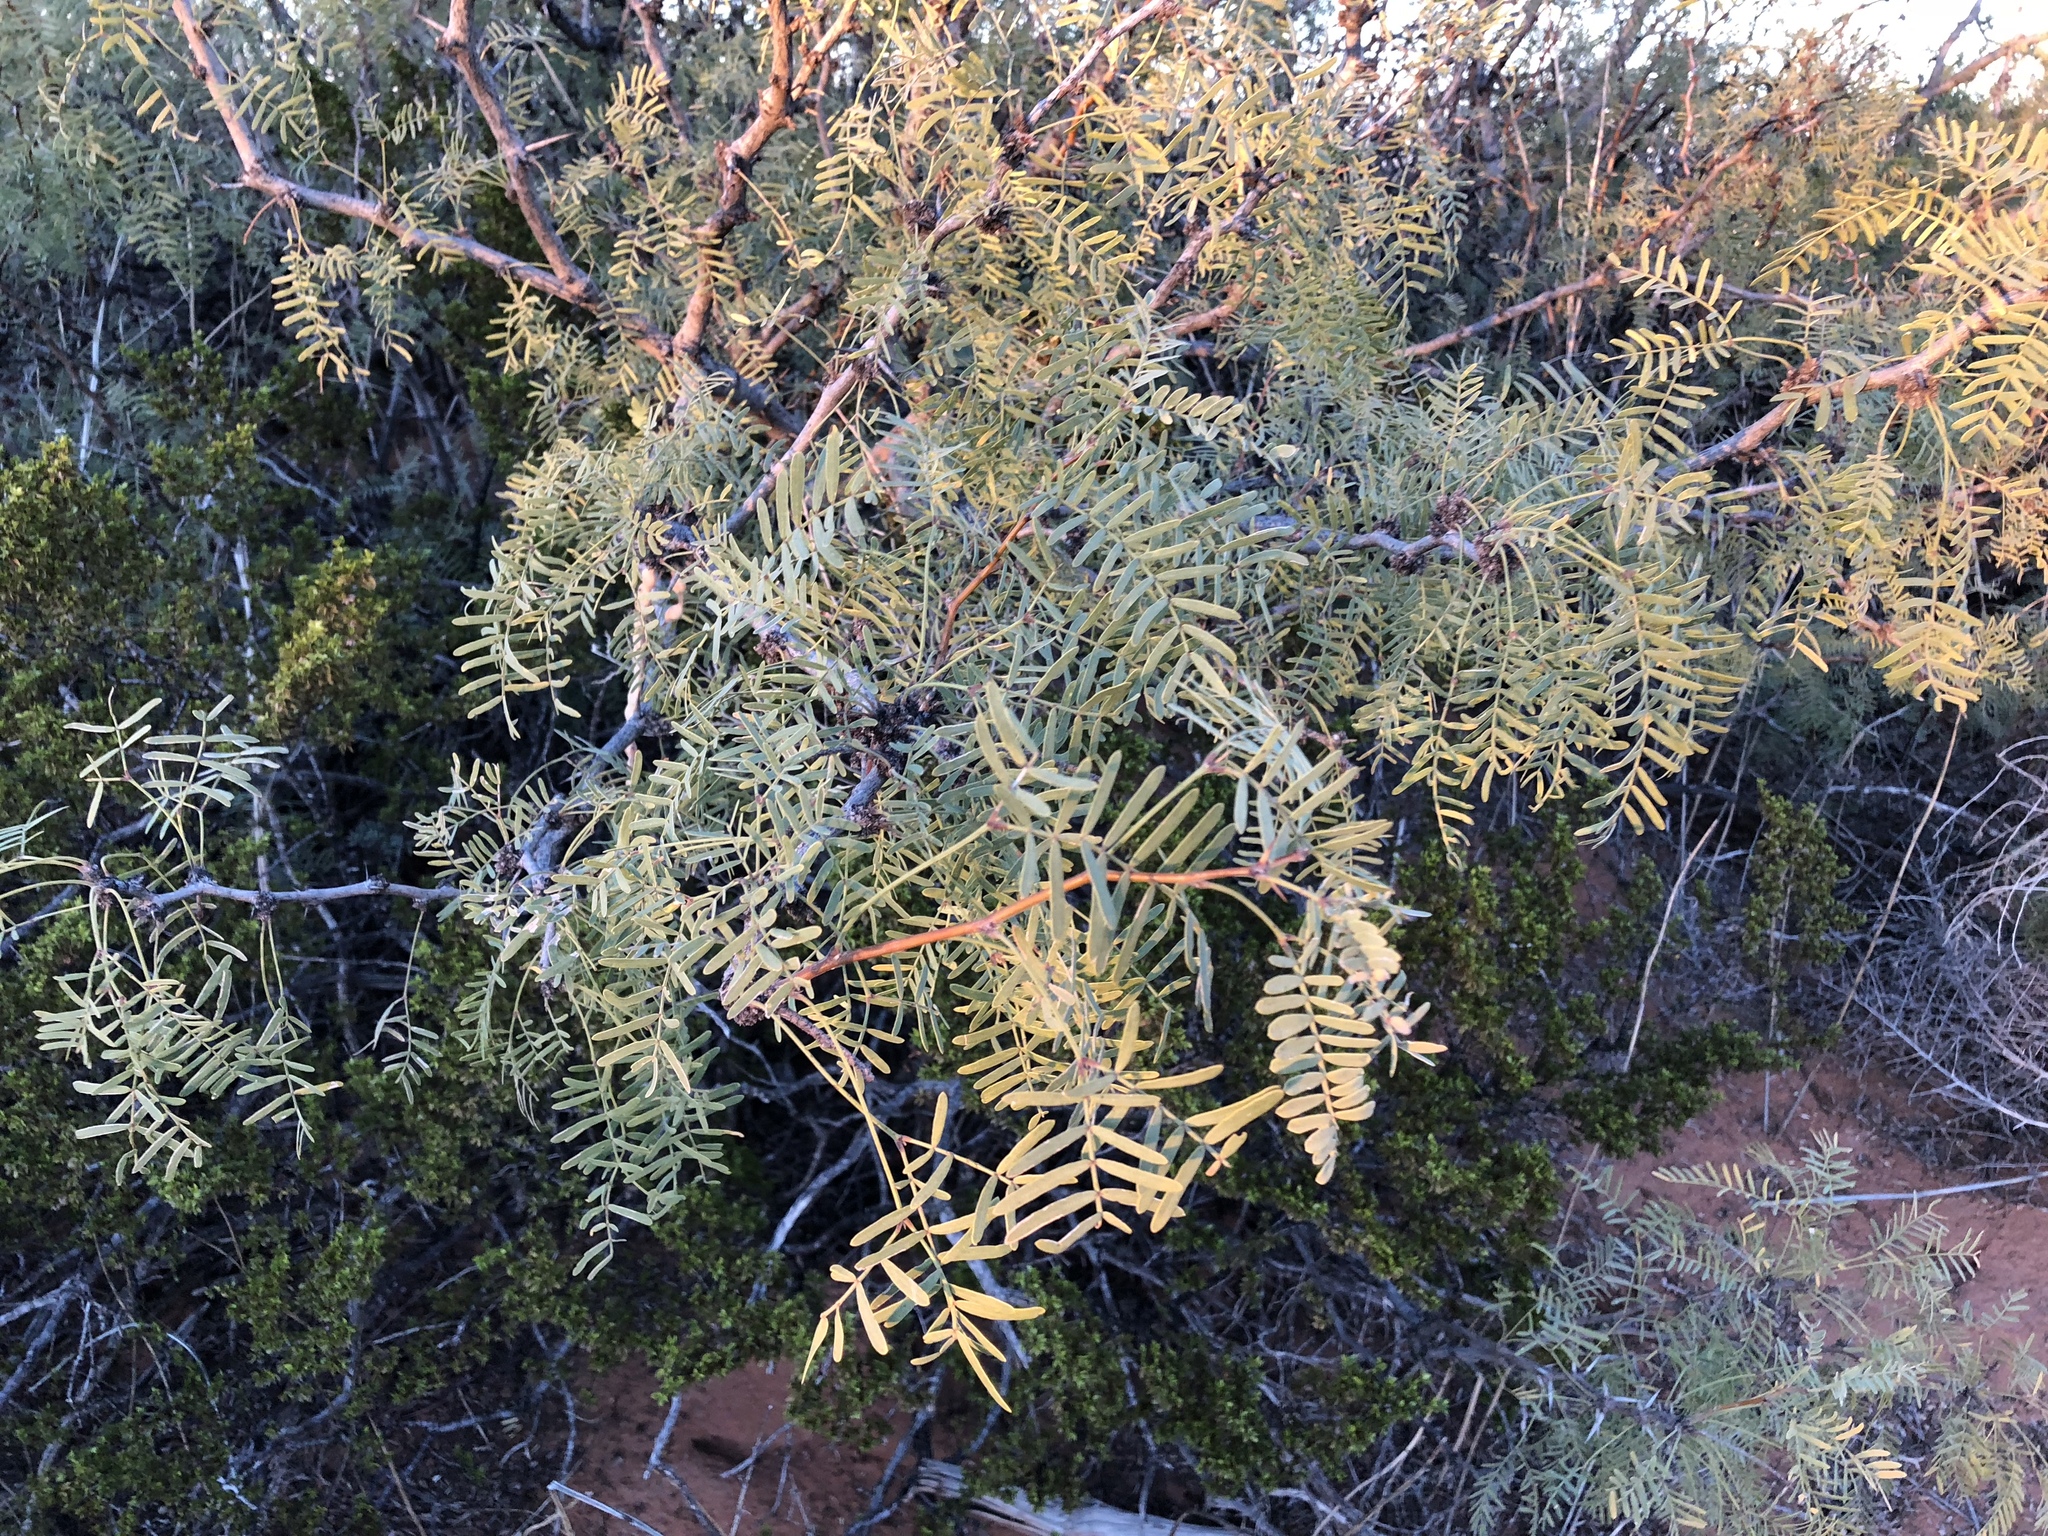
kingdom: Plantae
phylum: Tracheophyta
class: Magnoliopsida
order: Fabales
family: Fabaceae
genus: Prosopis
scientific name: Prosopis glandulosa
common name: Honey mesquite
